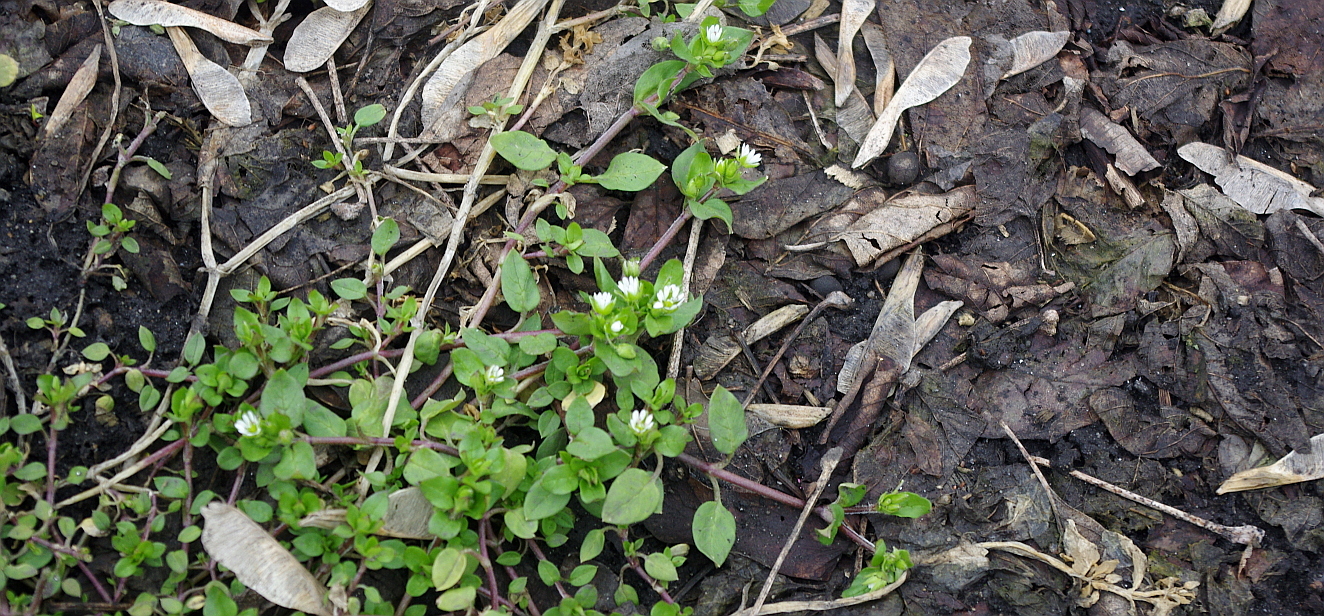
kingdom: Plantae
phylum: Tracheophyta
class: Magnoliopsida
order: Caryophyllales
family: Caryophyllaceae
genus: Stellaria
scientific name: Stellaria media
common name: Common chickweed
